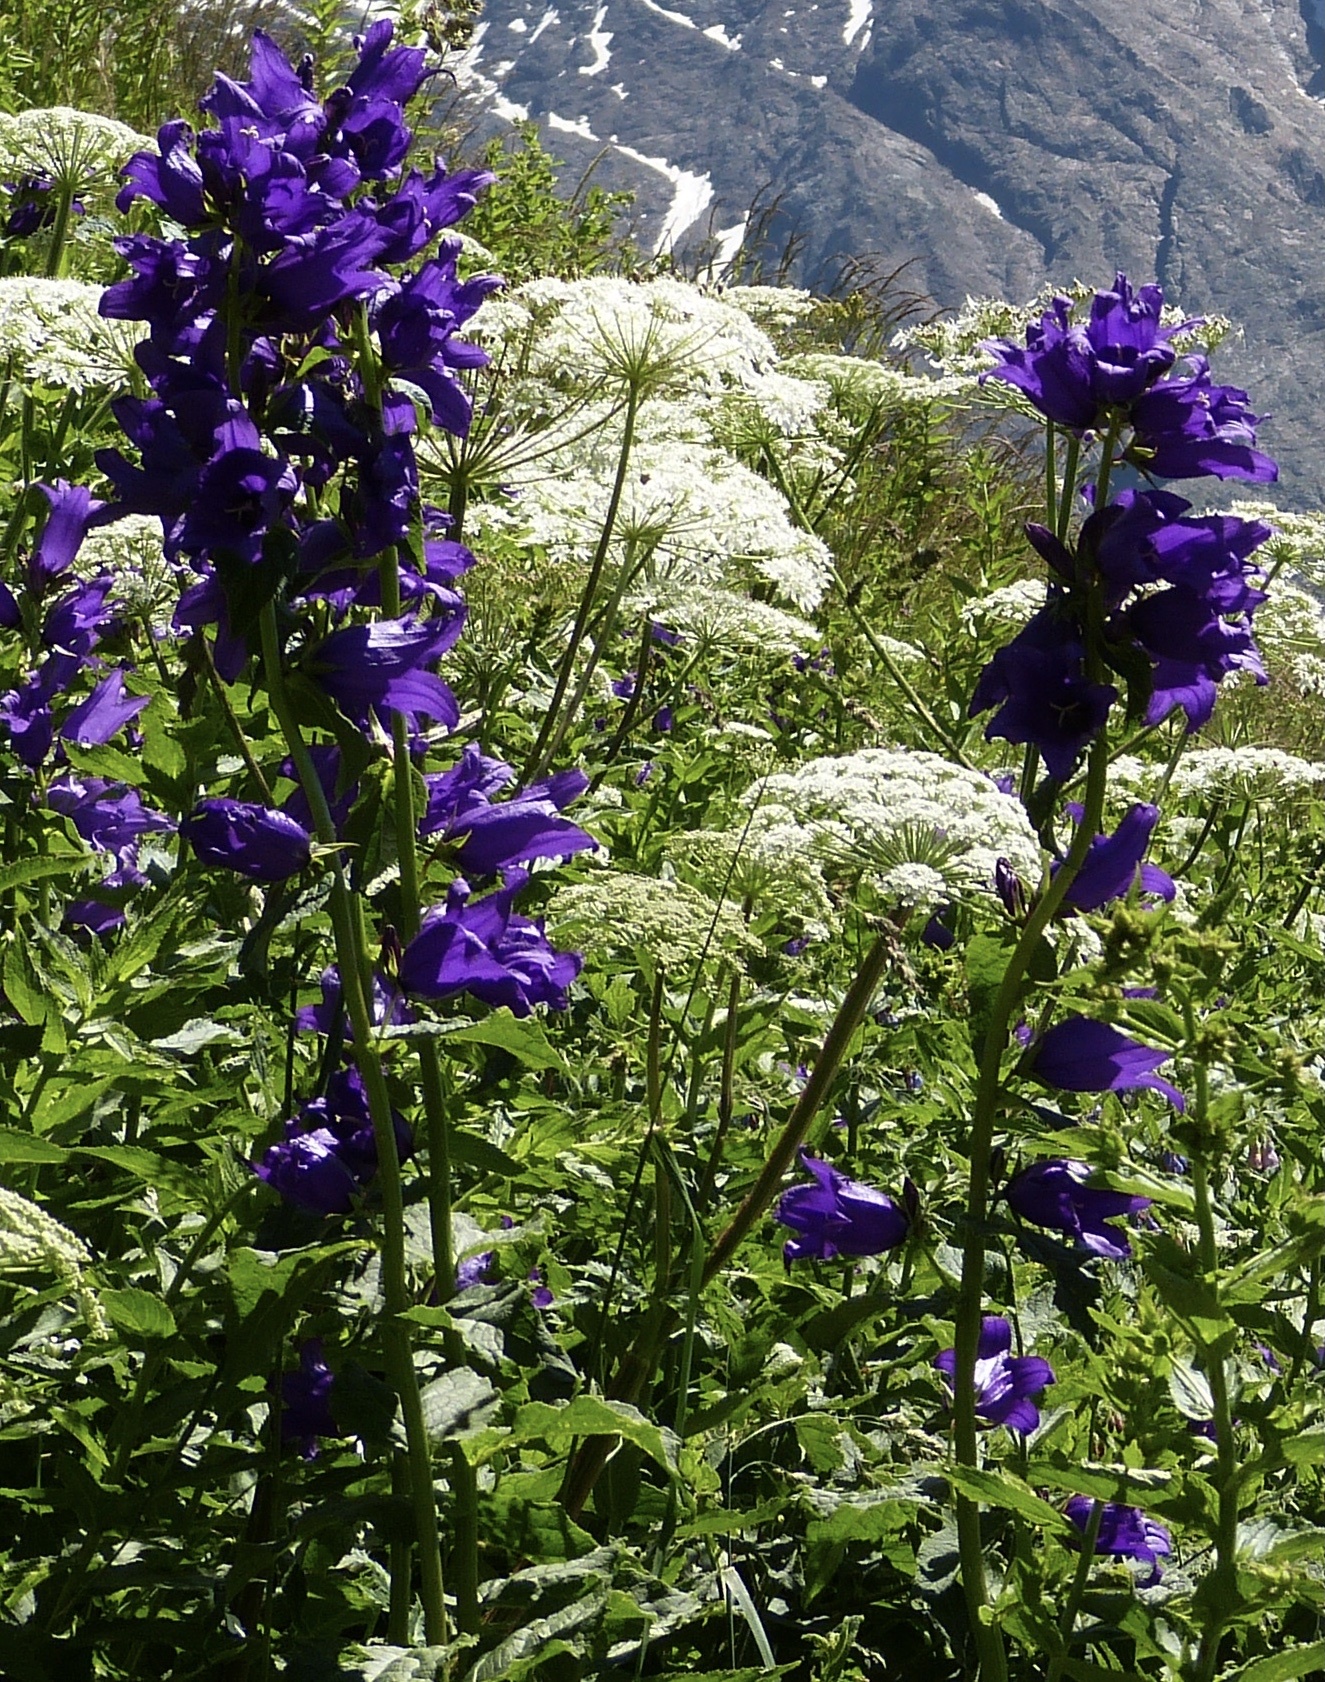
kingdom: Plantae
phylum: Tracheophyta
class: Magnoliopsida
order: Asterales
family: Campanulaceae
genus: Campanula
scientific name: Campanula latifolia
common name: Giant bellflower
